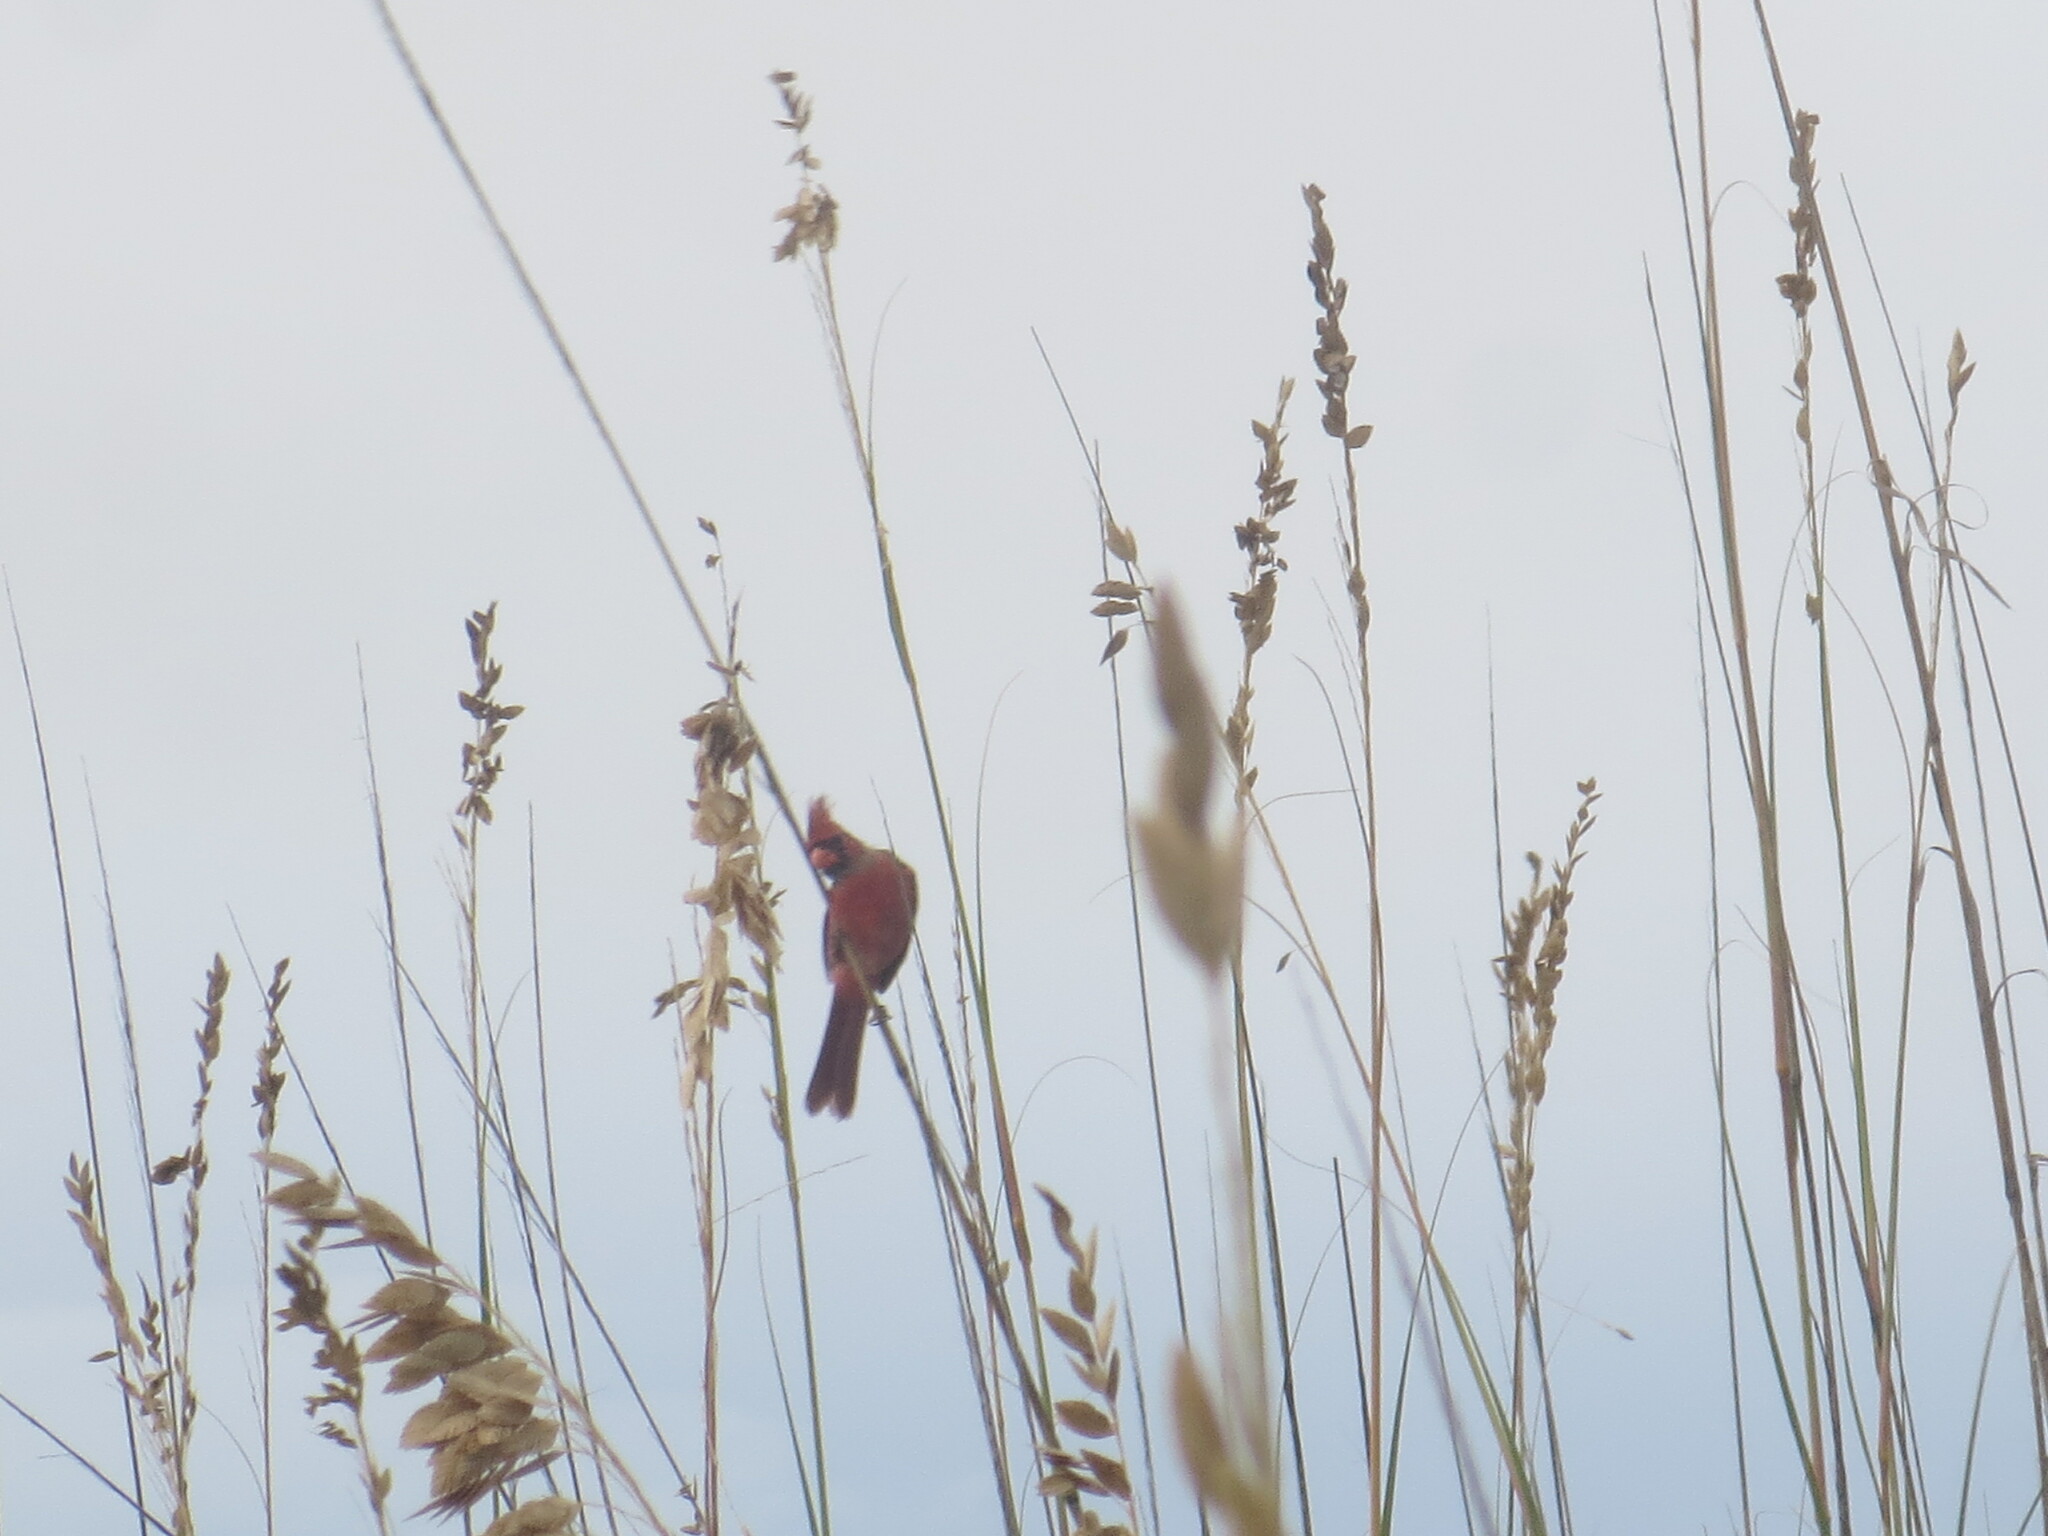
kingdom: Animalia
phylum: Chordata
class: Aves
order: Passeriformes
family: Cardinalidae
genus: Cardinalis
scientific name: Cardinalis cardinalis
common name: Northern cardinal
